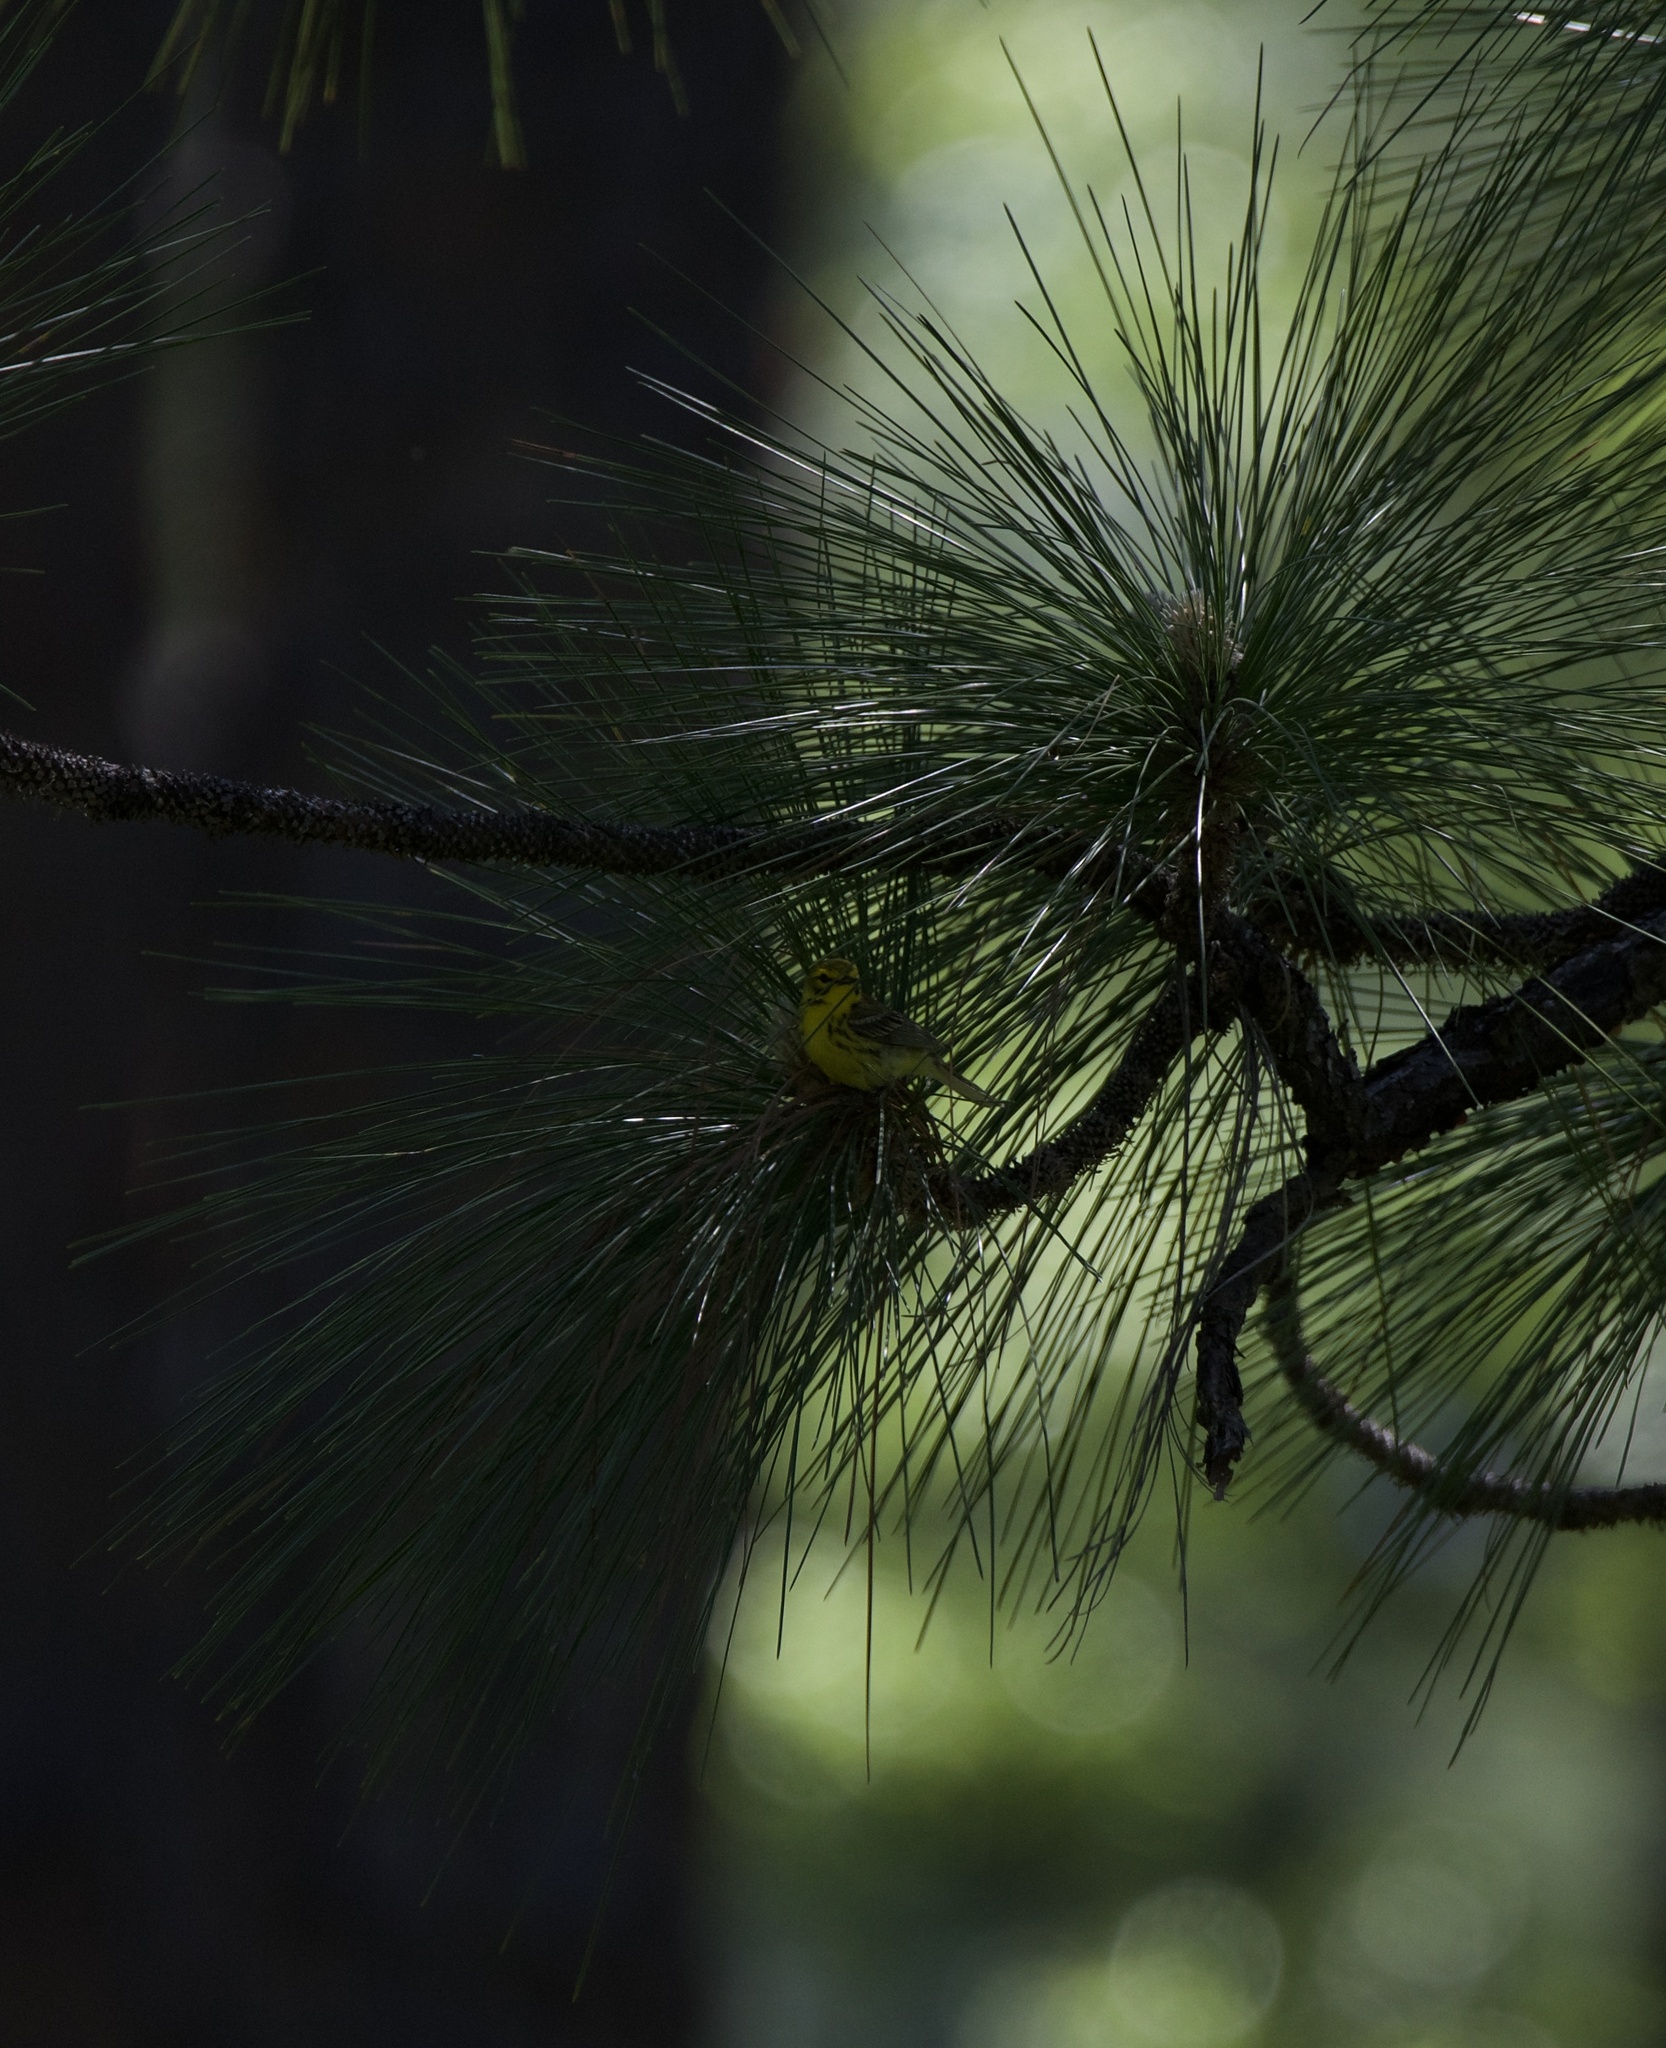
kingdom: Animalia
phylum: Chordata
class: Aves
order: Passeriformes
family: Parulidae
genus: Setophaga
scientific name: Setophaga discolor
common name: Prairie warbler
